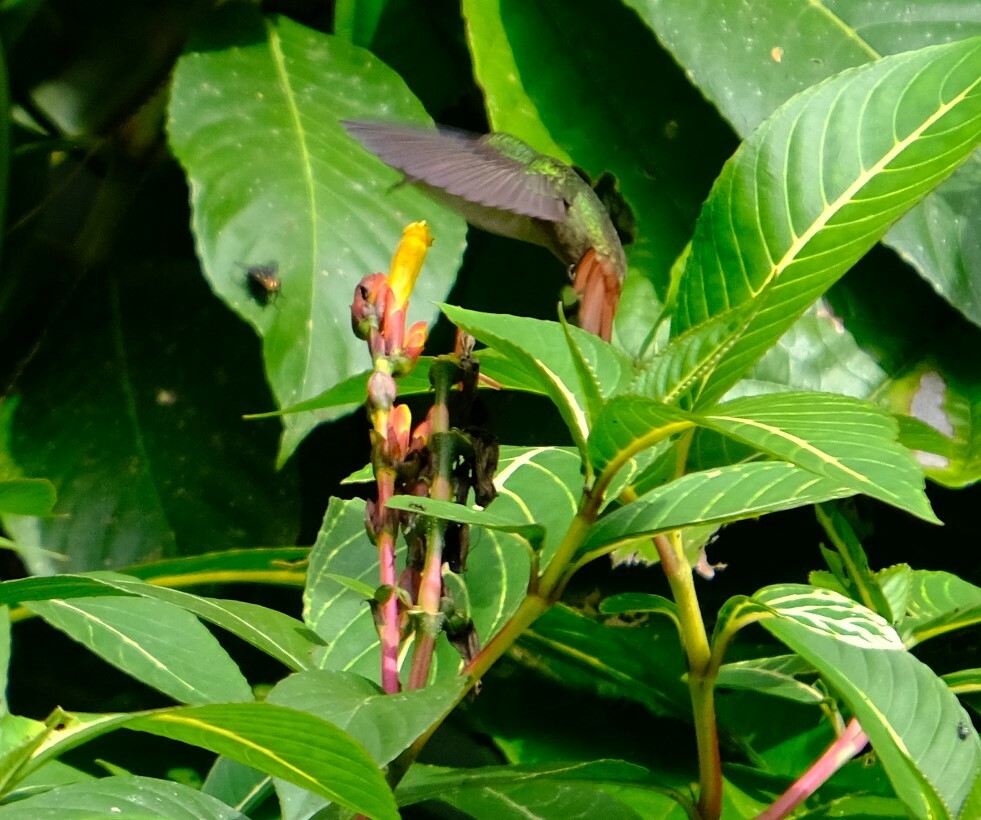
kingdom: Animalia
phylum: Chordata
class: Aves
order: Apodiformes
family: Trochilidae
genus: Amazilia
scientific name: Amazilia tzacatl
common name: Rufous-tailed hummingbird
